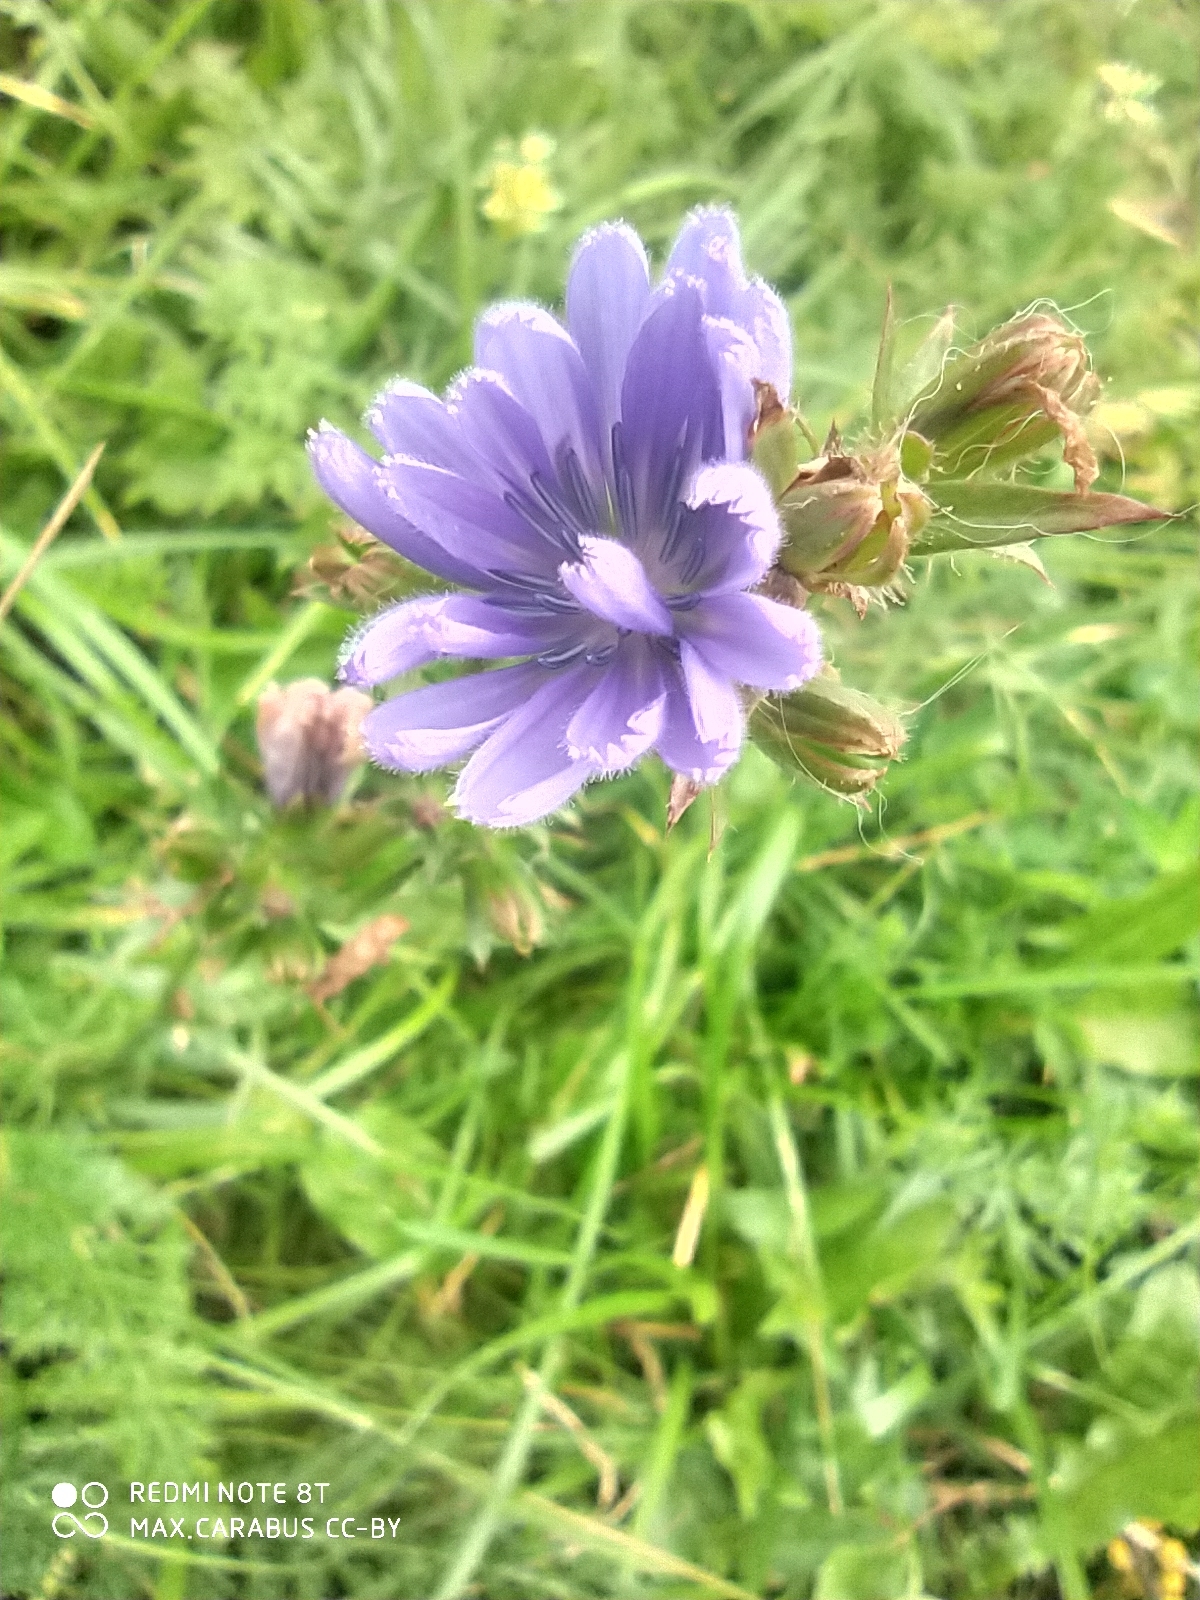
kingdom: Plantae
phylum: Tracheophyta
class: Magnoliopsida
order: Asterales
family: Asteraceae
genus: Cichorium
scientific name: Cichorium intybus
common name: Chicory
